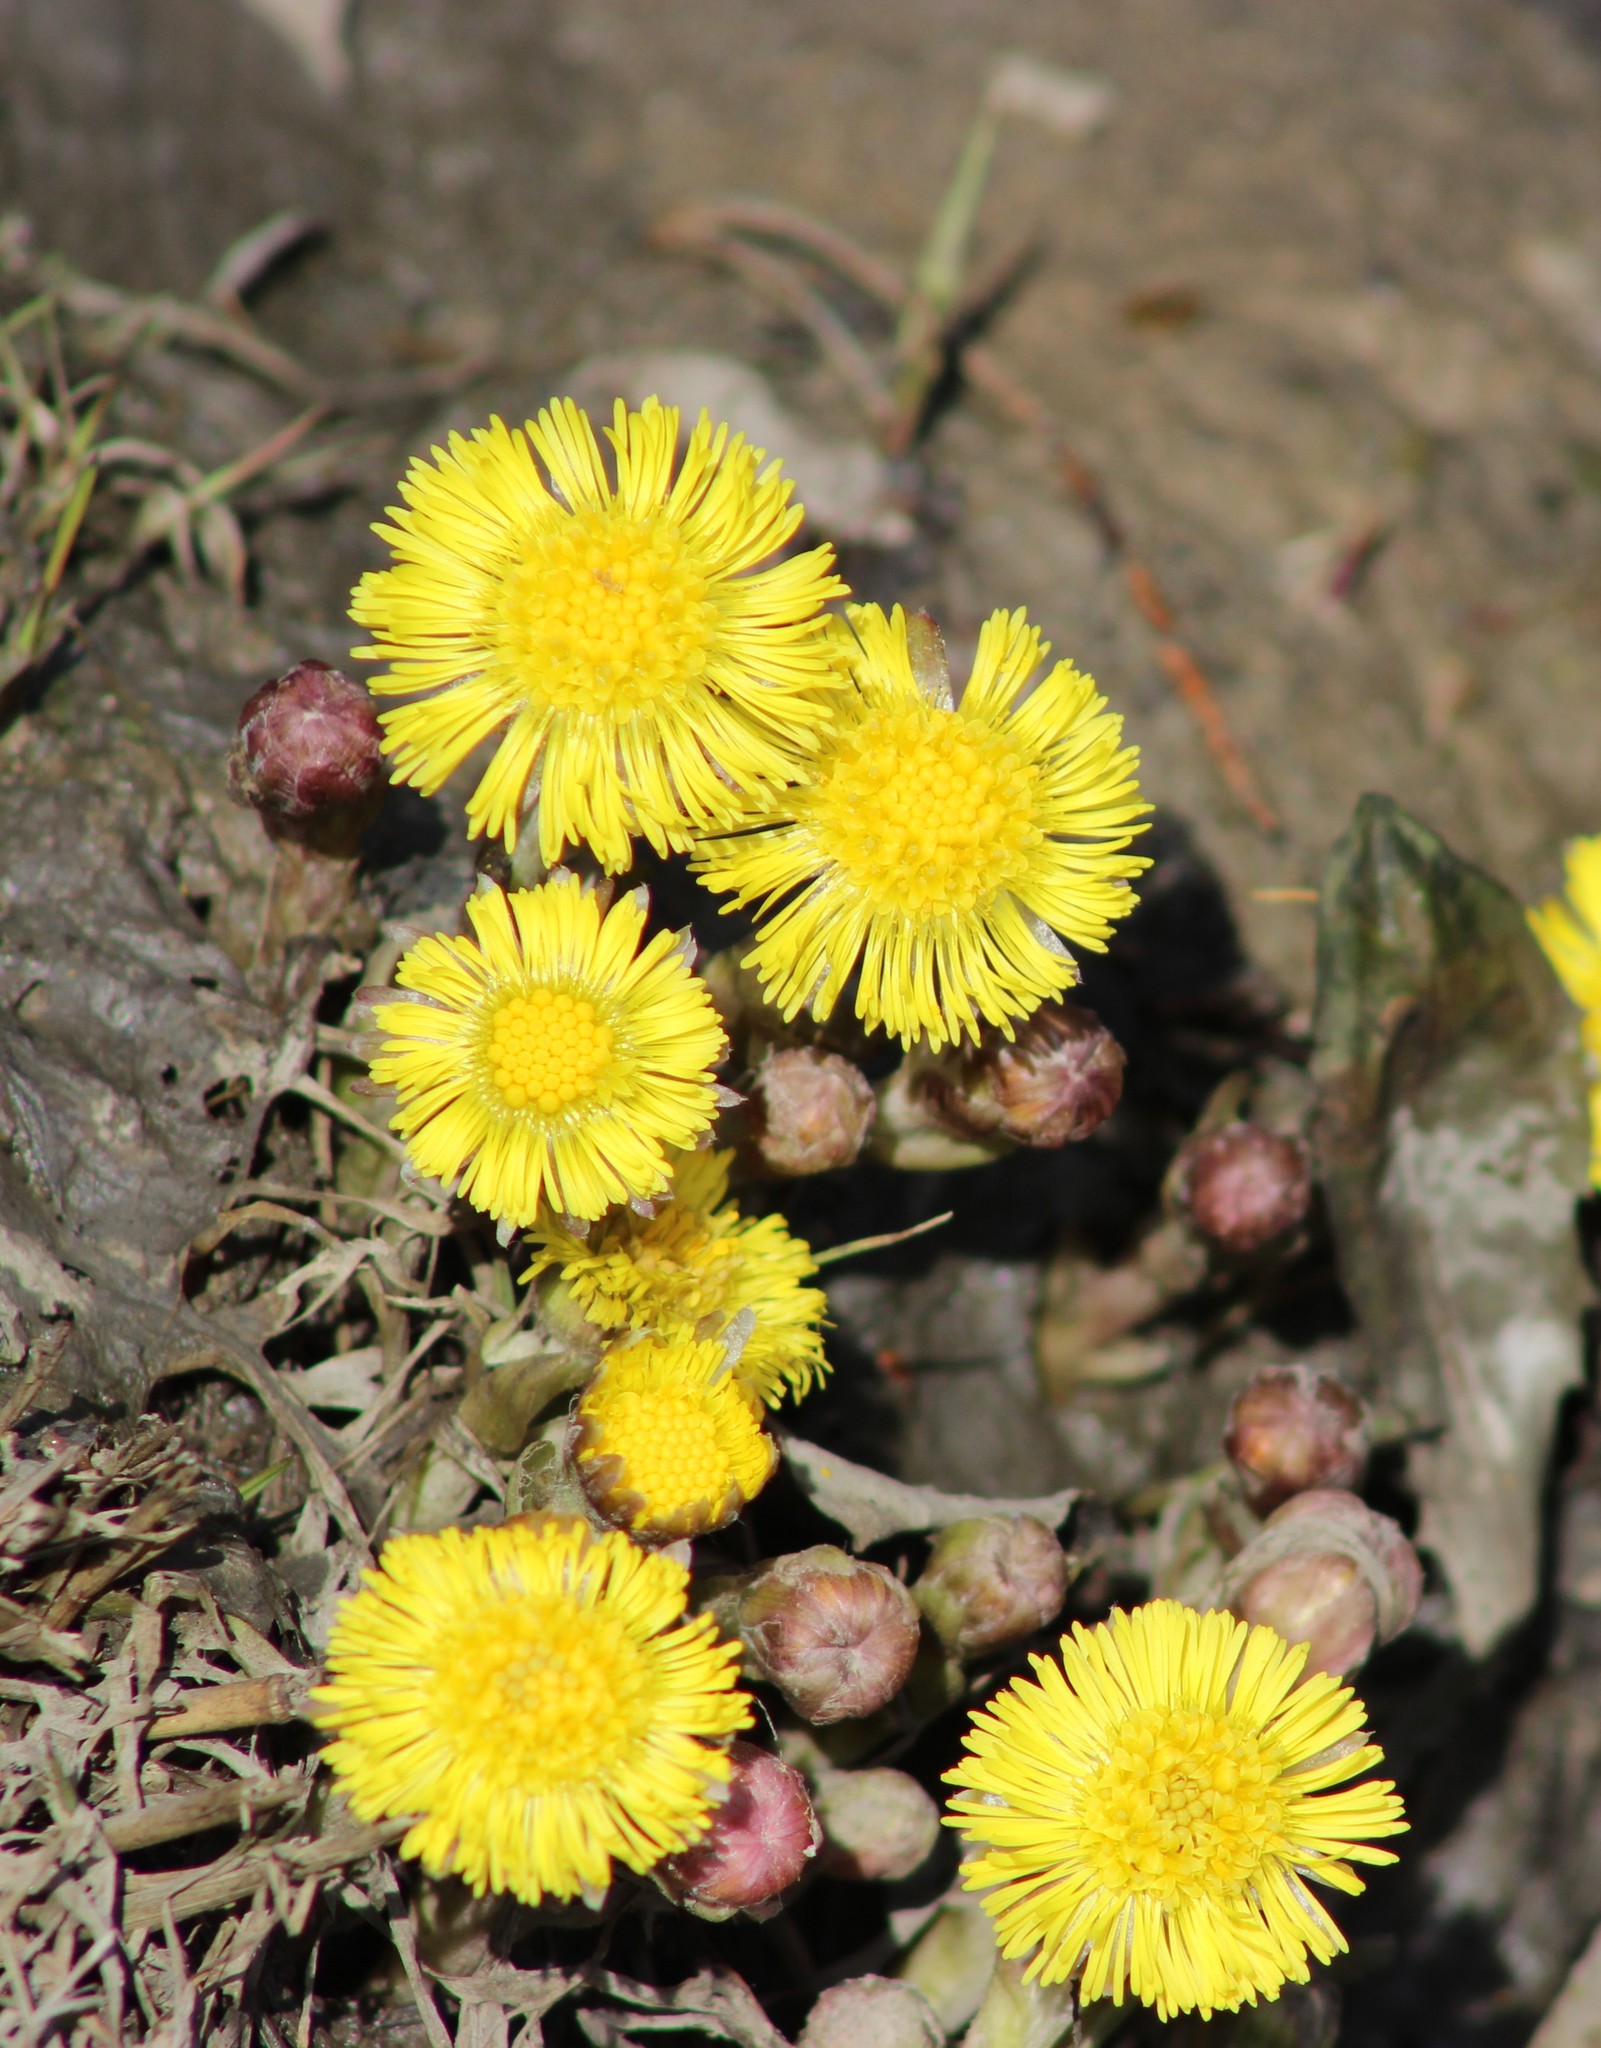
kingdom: Plantae
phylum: Tracheophyta
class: Magnoliopsida
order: Asterales
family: Asteraceae
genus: Tussilago
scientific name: Tussilago farfara
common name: Coltsfoot
